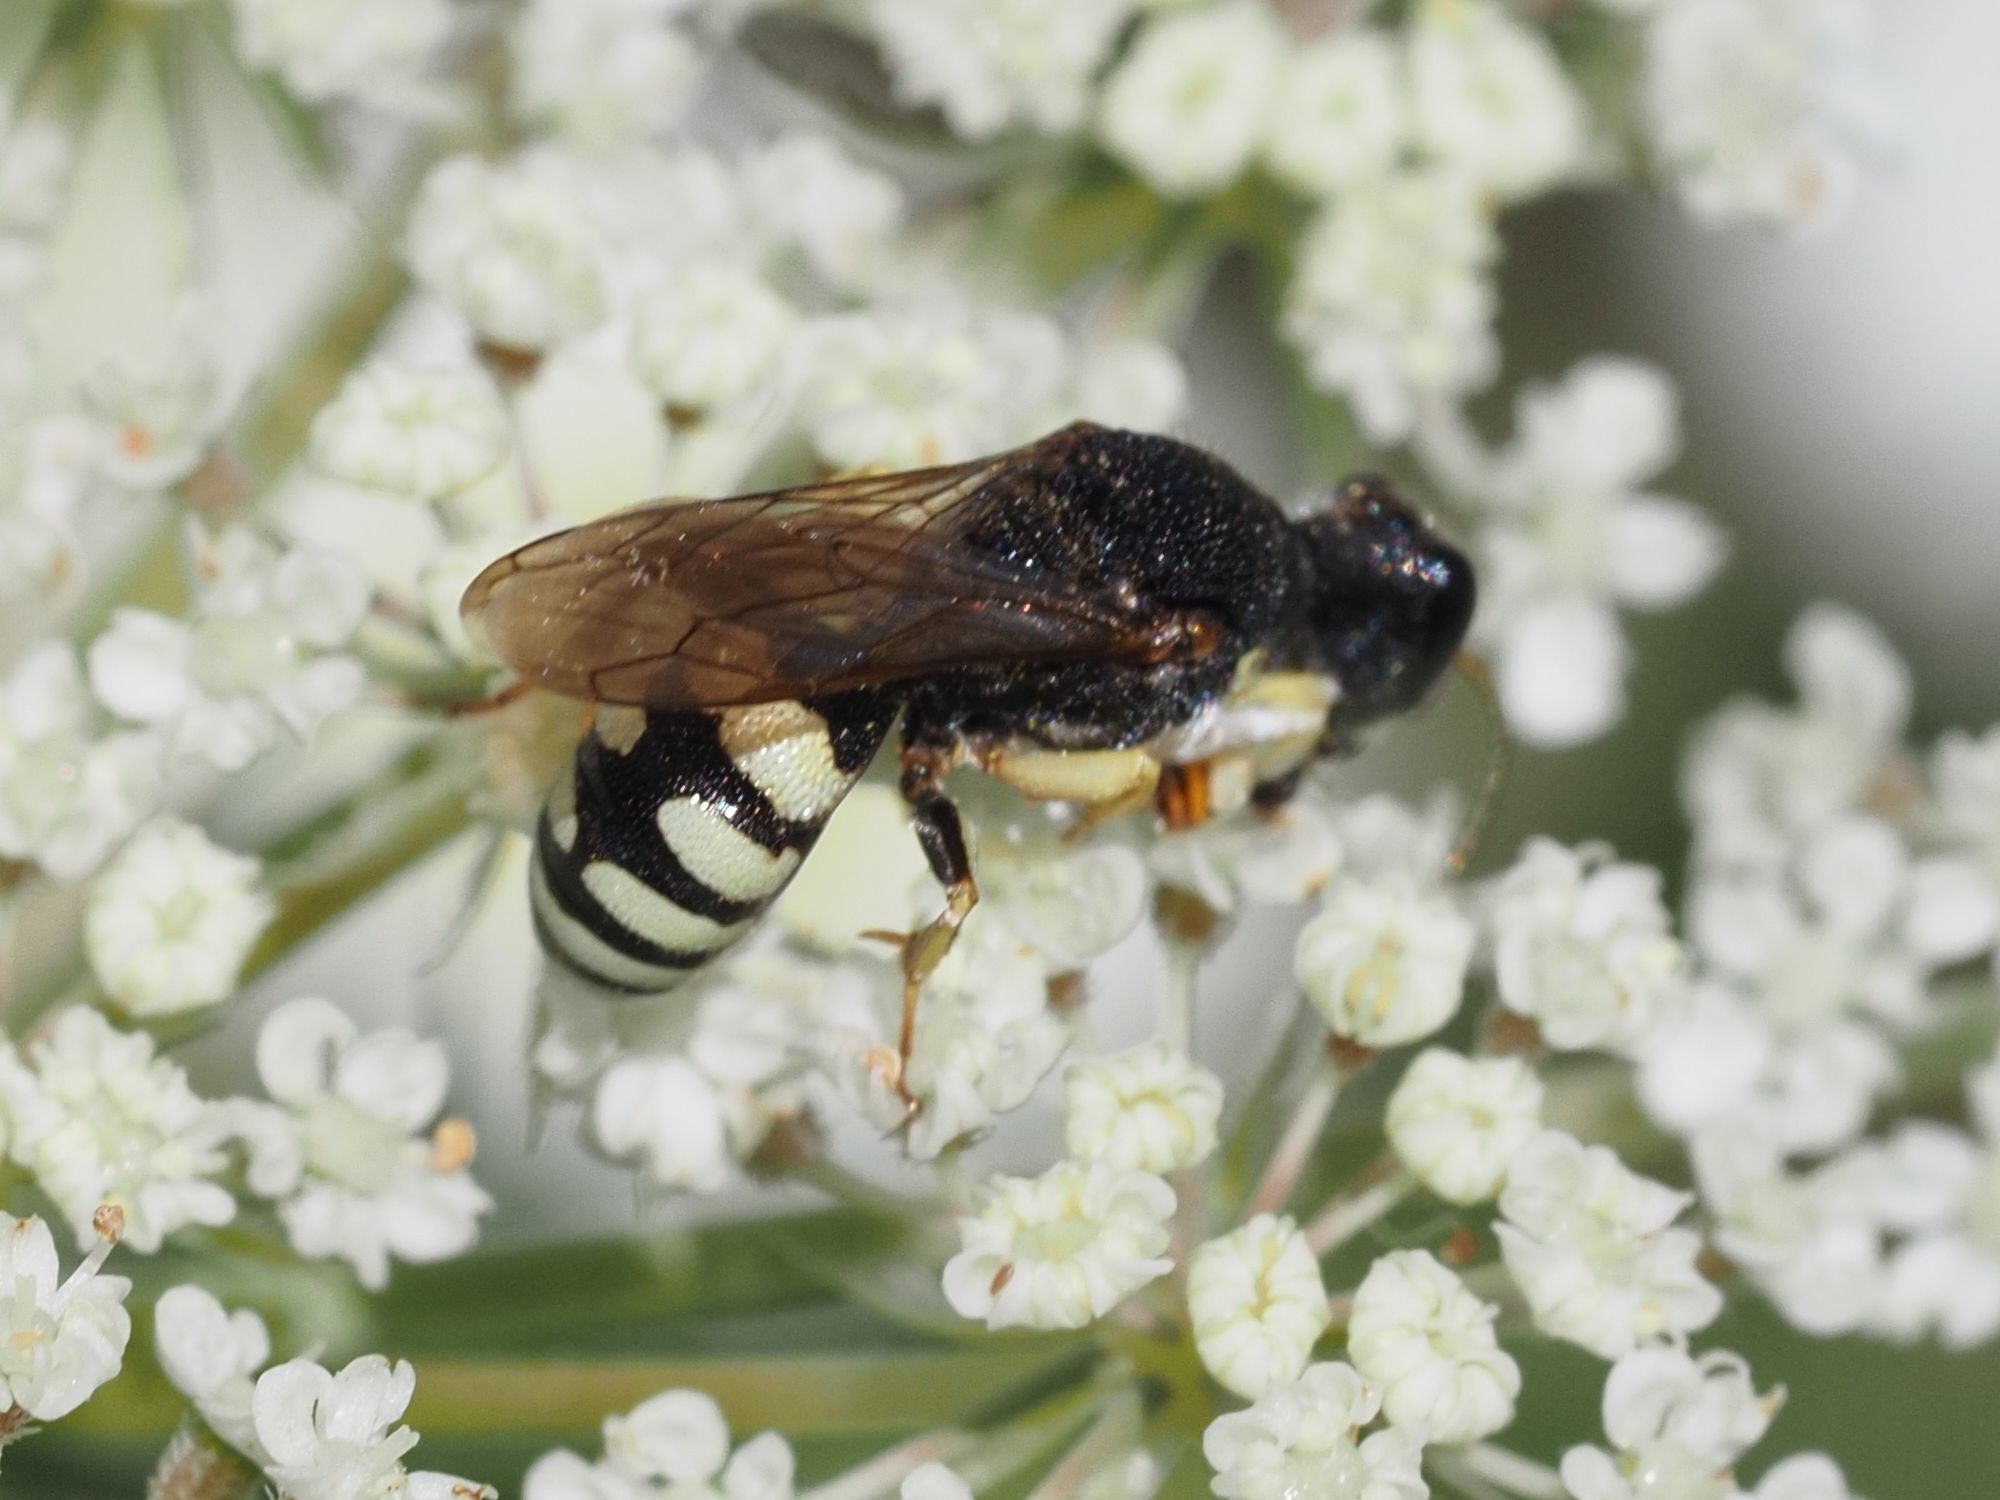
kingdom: Animalia
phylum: Arthropoda
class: Insecta
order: Hymenoptera
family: Crabronidae
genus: Lestica
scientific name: Lestica clypeata
